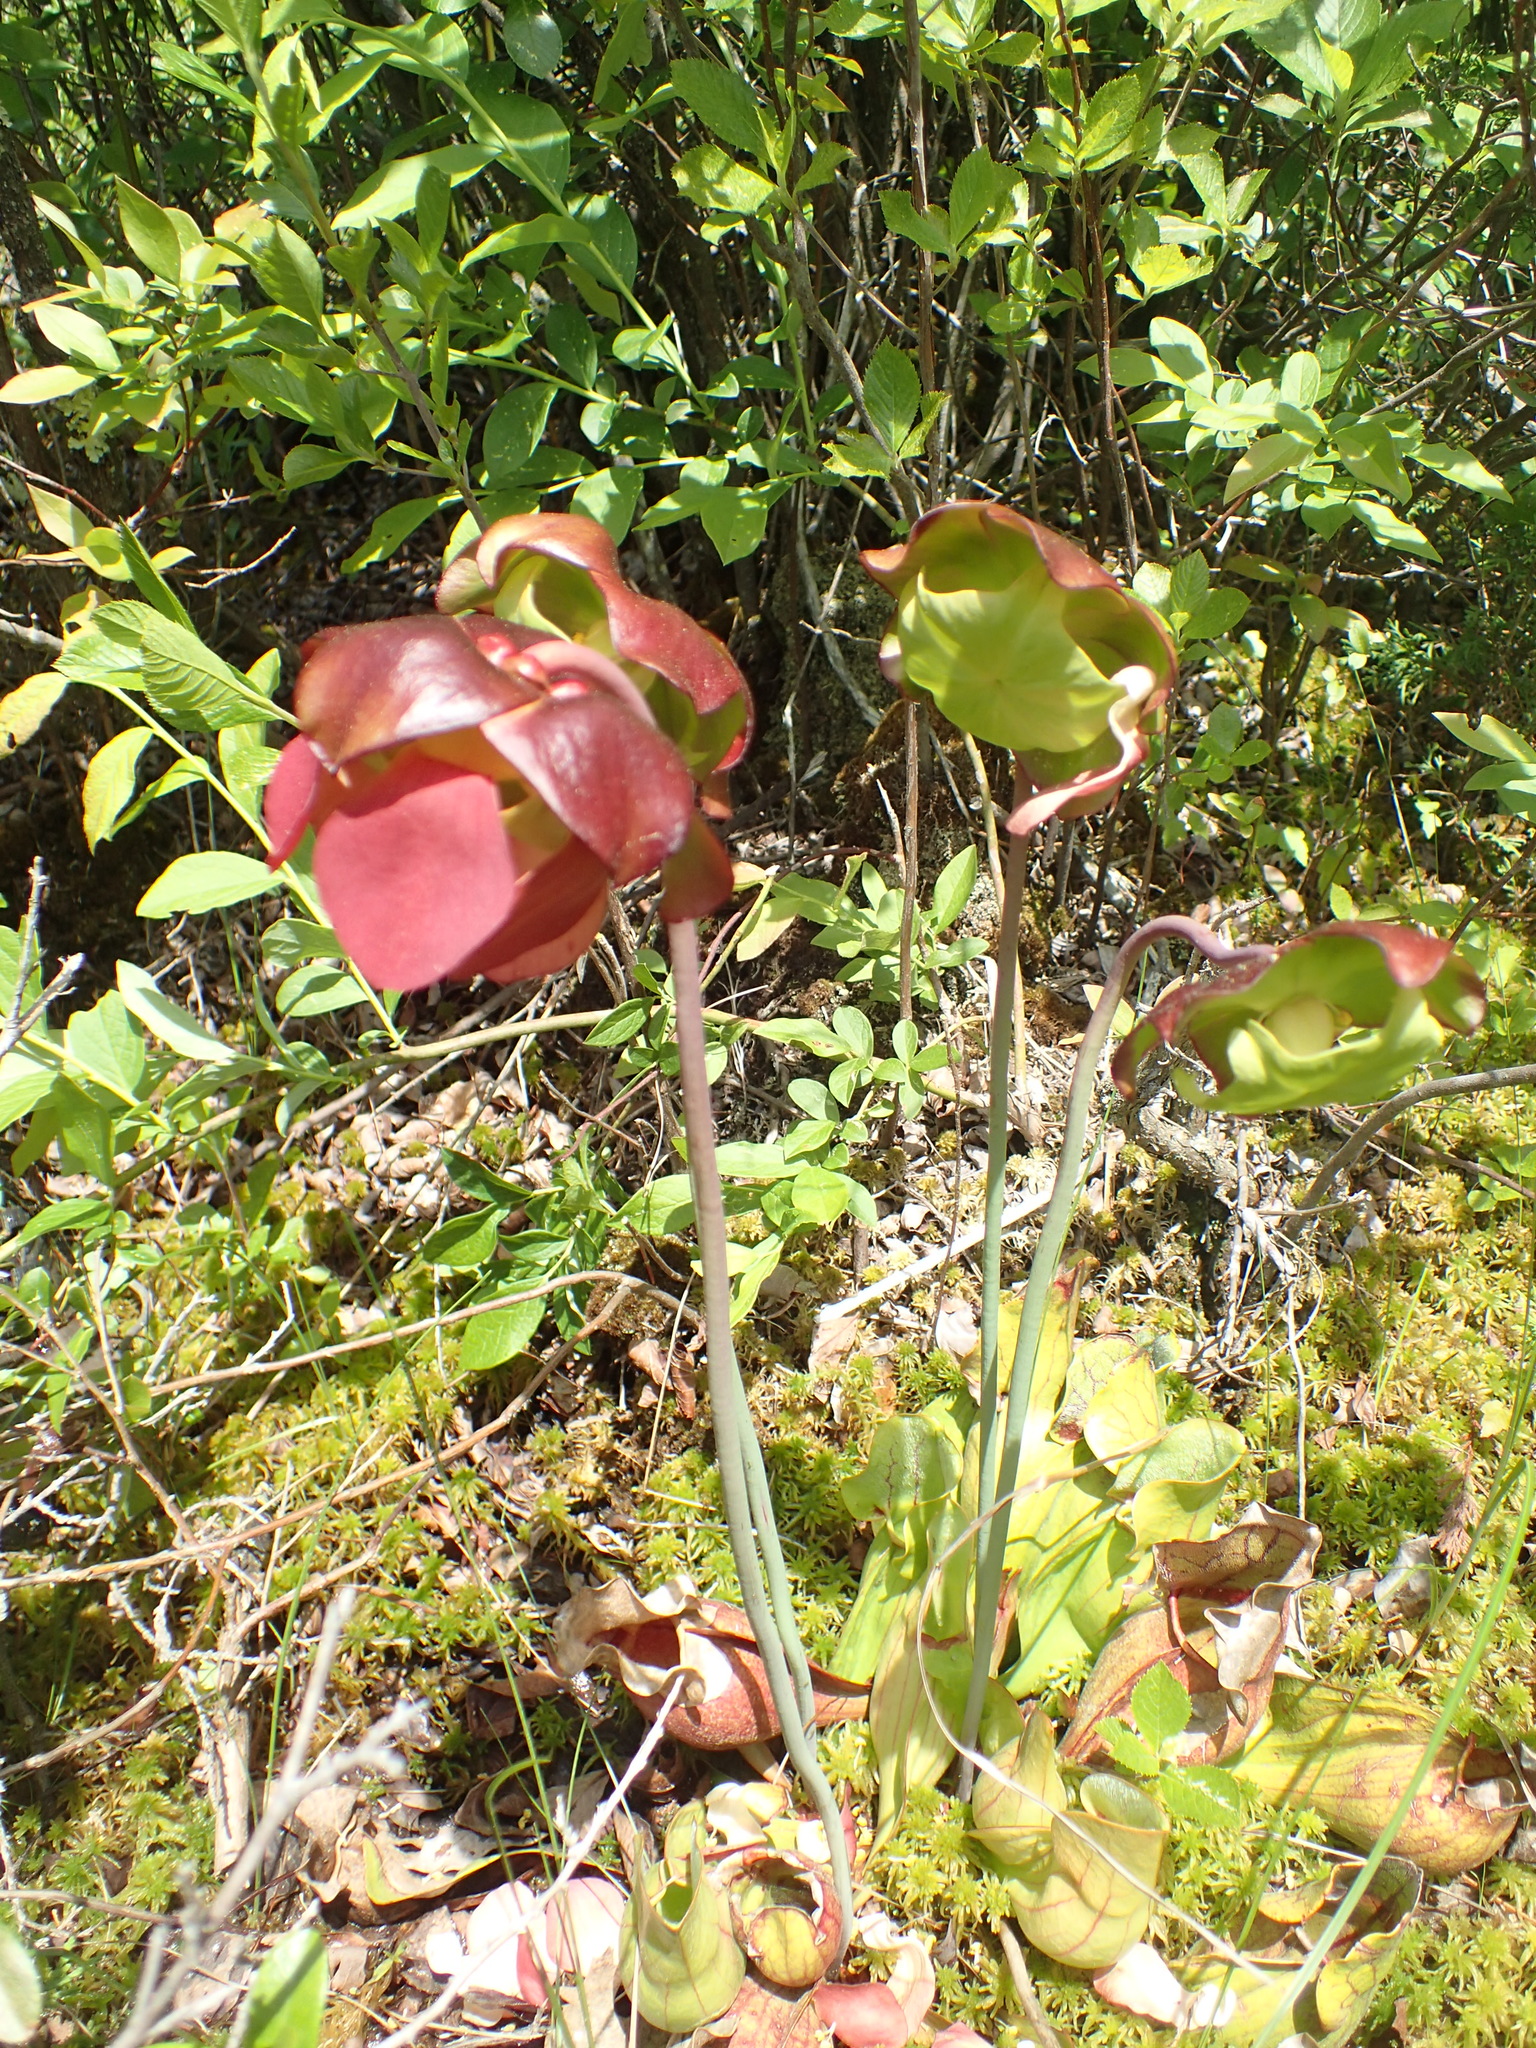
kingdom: Plantae
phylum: Tracheophyta
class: Magnoliopsida
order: Ericales
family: Sarraceniaceae
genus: Sarracenia
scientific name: Sarracenia purpurea
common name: Pitcherplant
